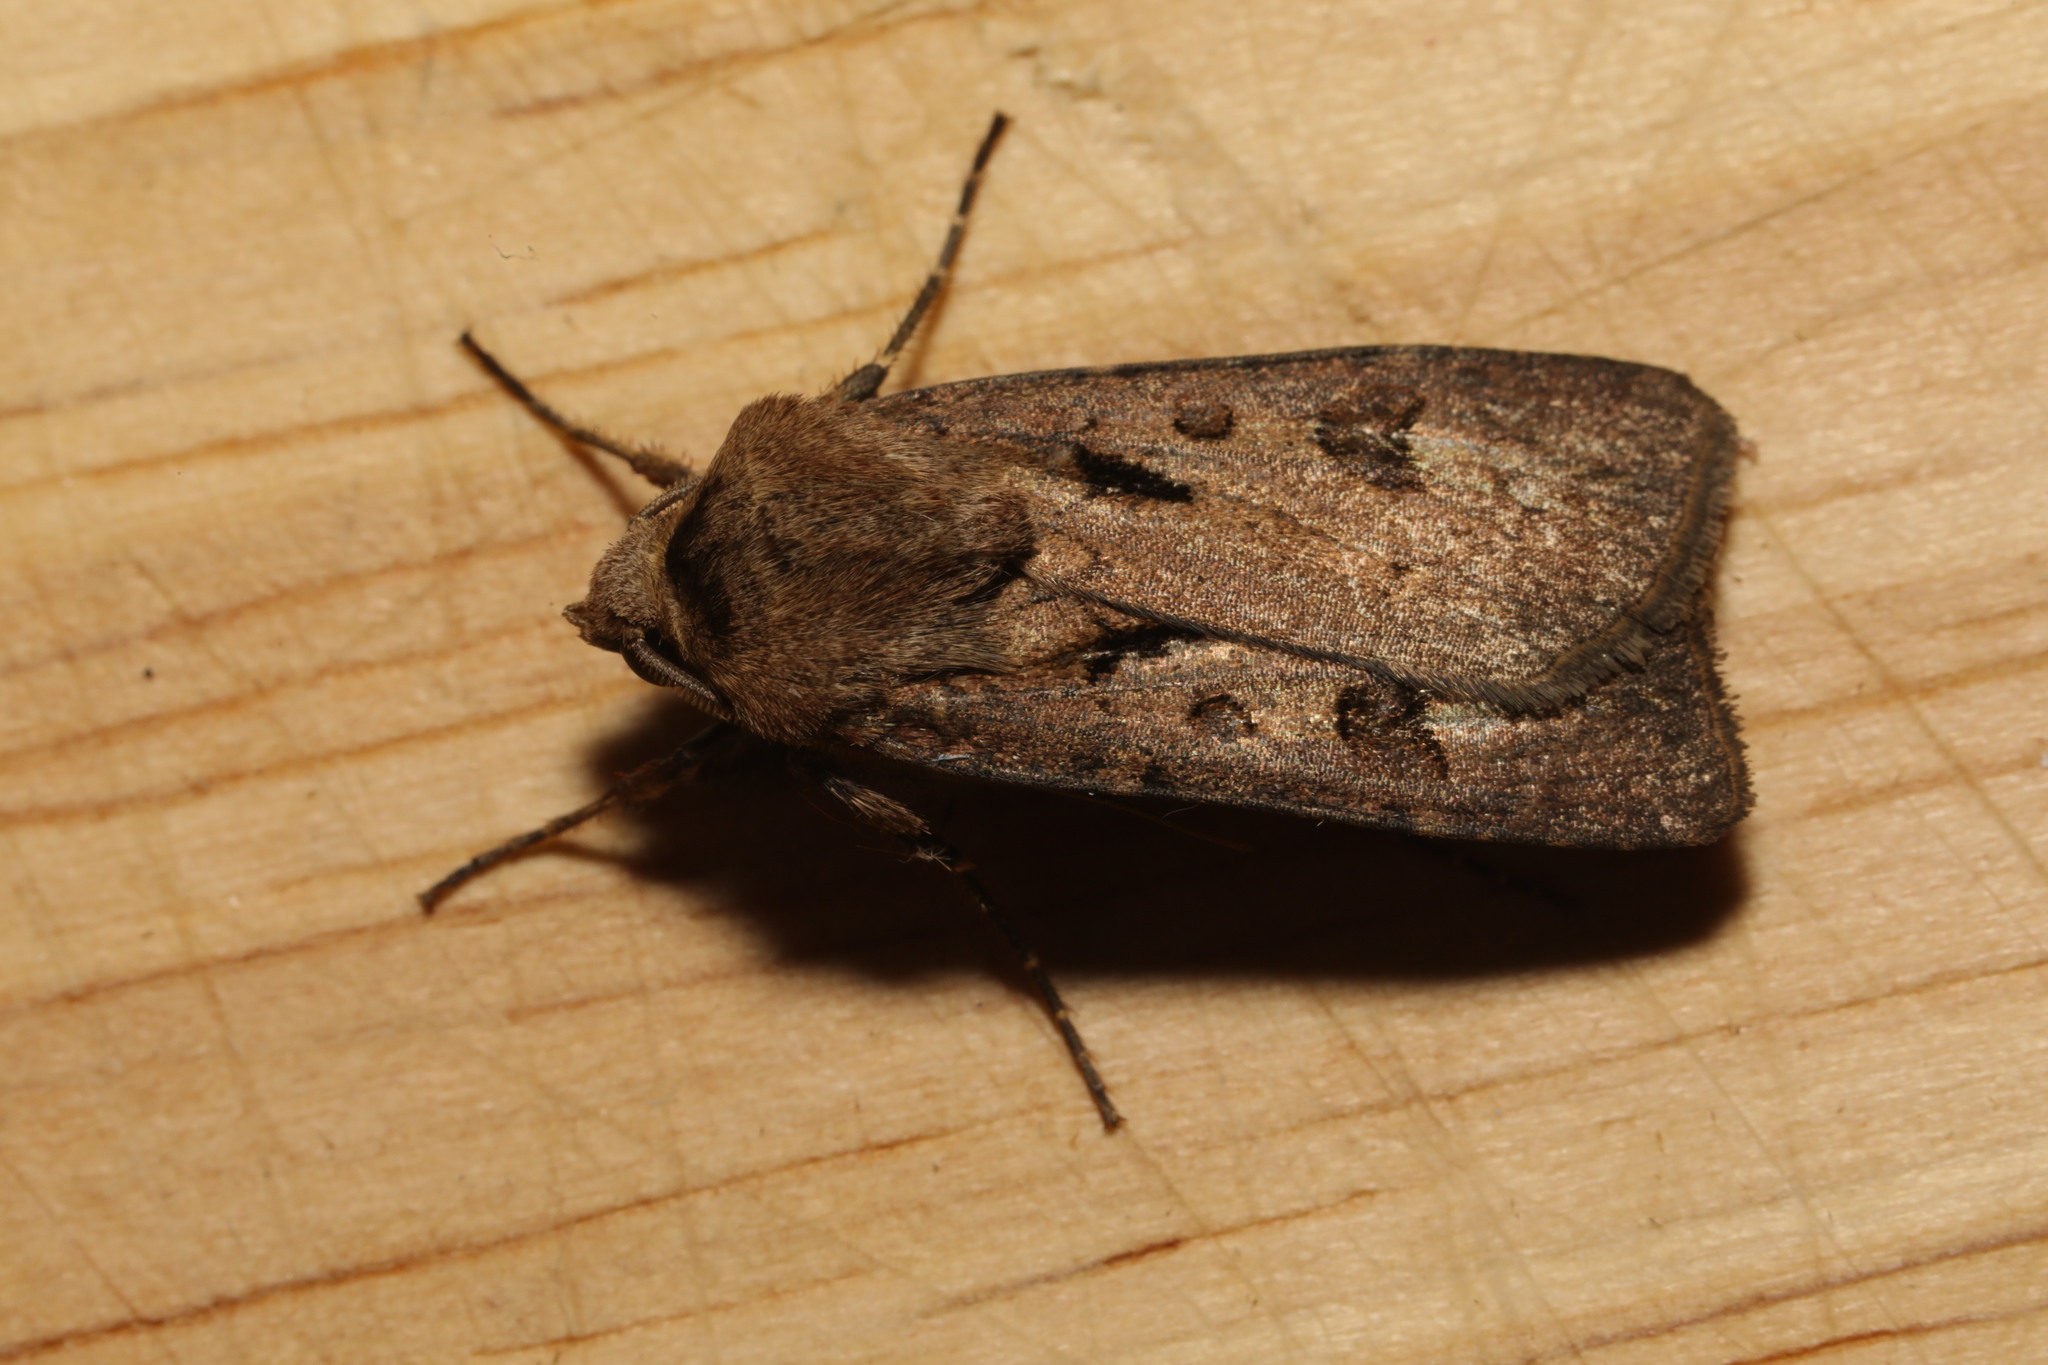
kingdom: Animalia
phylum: Arthropoda
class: Insecta
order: Lepidoptera
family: Noctuidae
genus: Agrotis
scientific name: Agrotis exclamationis
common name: Heart and dart
